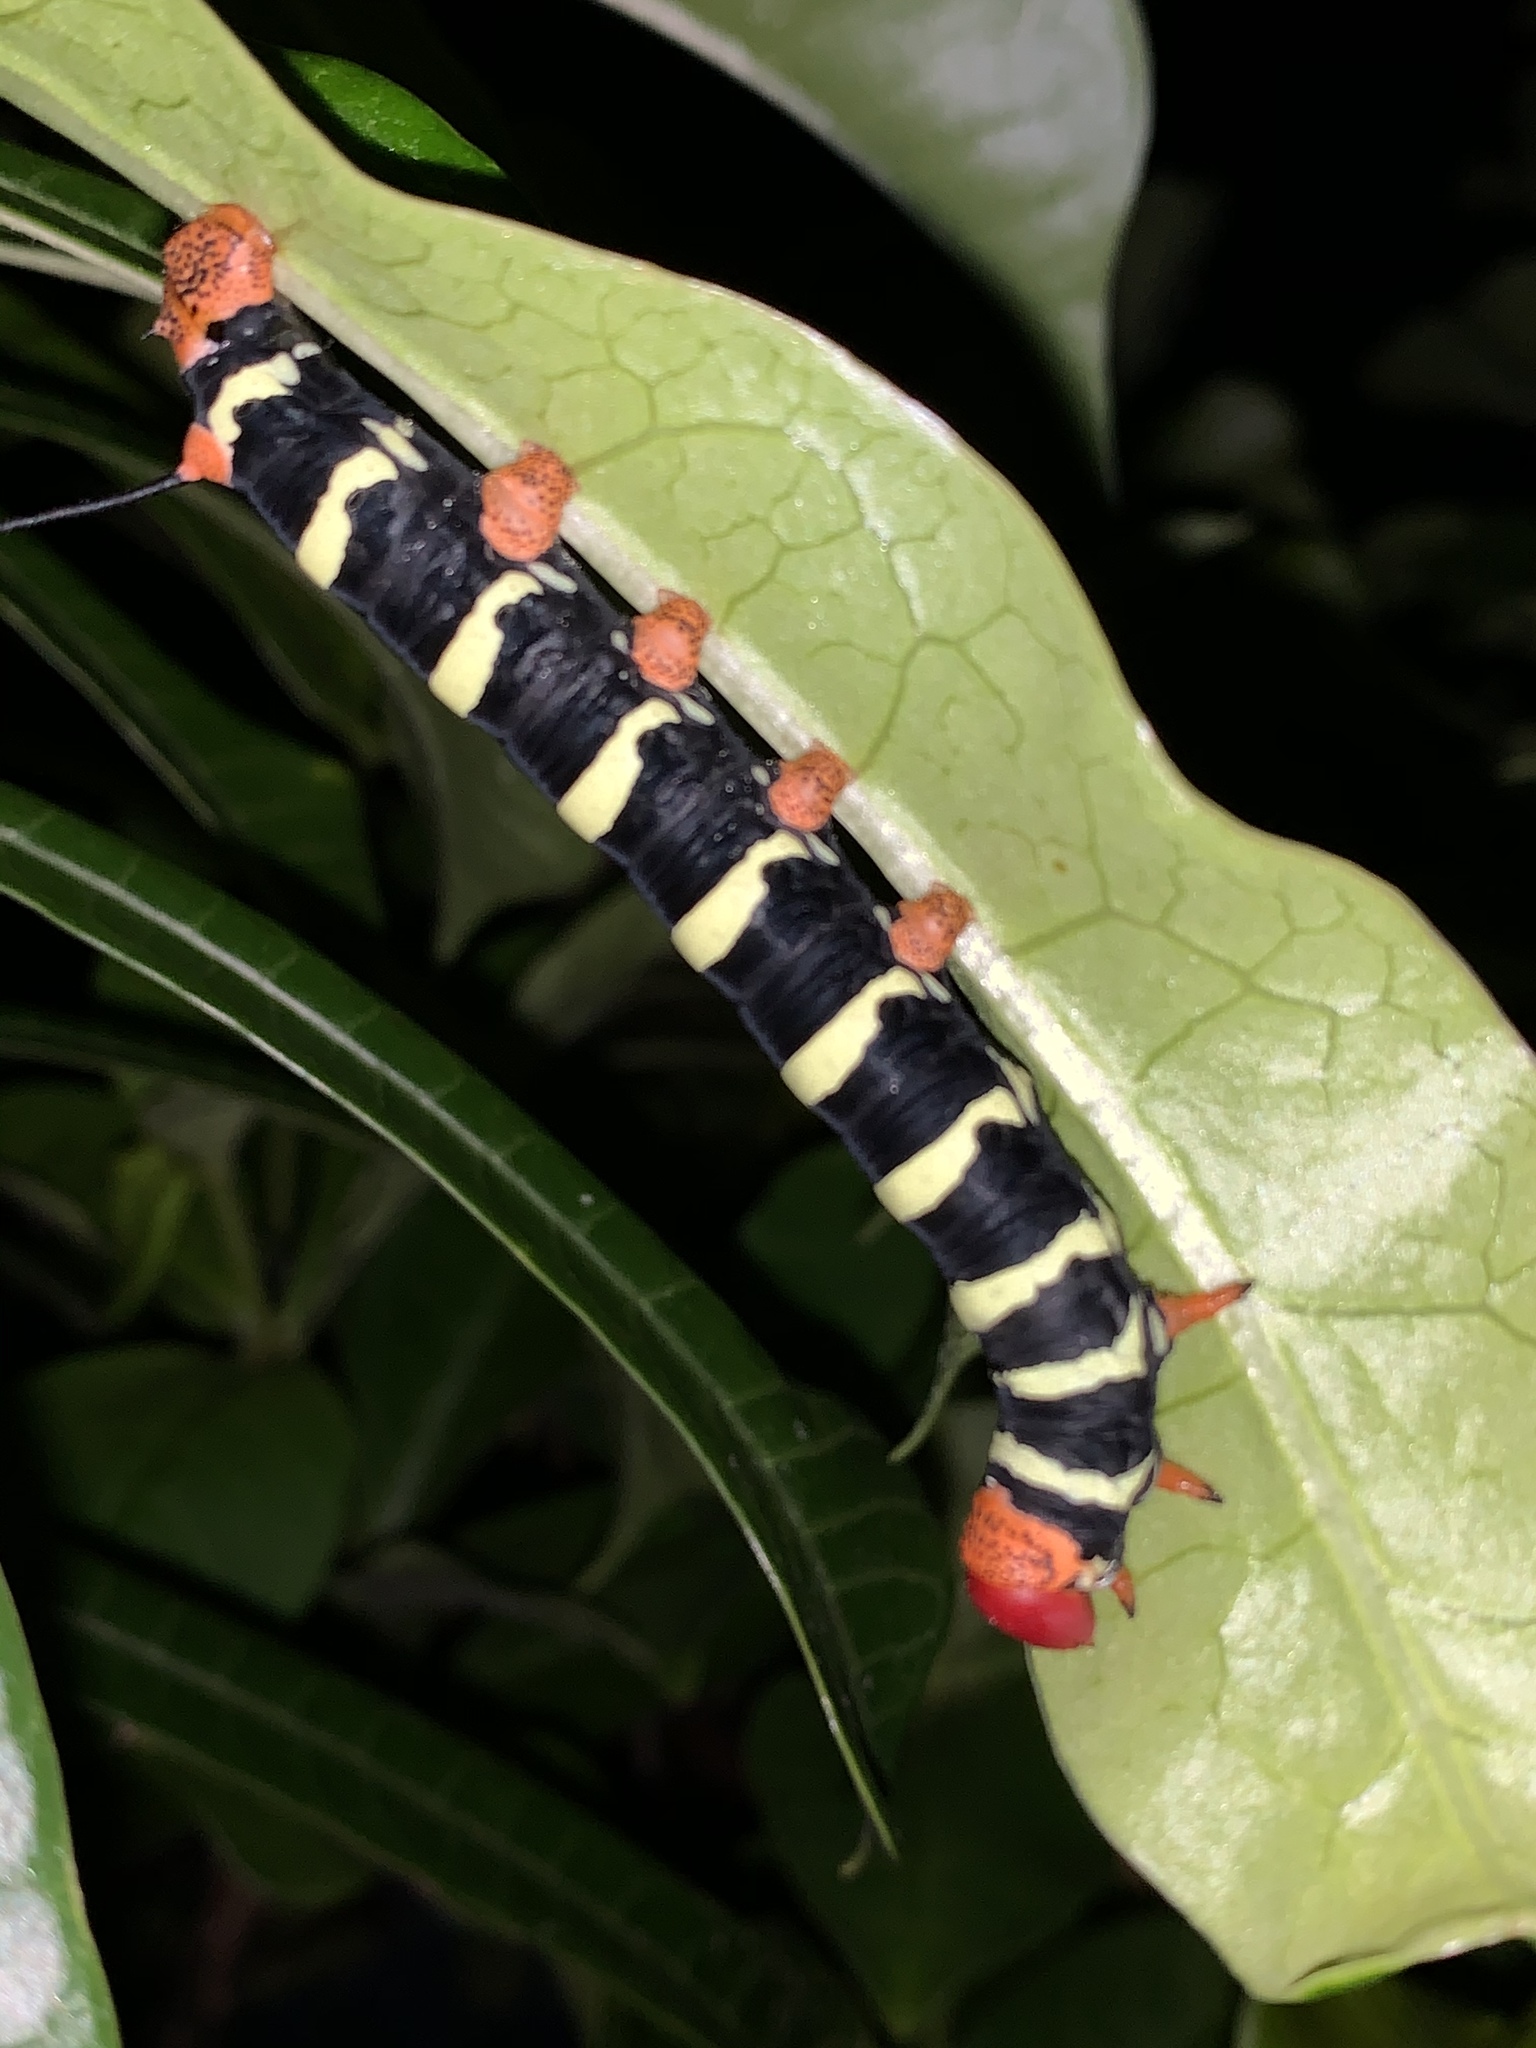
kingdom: Animalia
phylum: Arthropoda
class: Insecta
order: Lepidoptera
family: Sphingidae
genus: Pseudosphinx
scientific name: Pseudosphinx tetrio
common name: Tetrio sphinx
